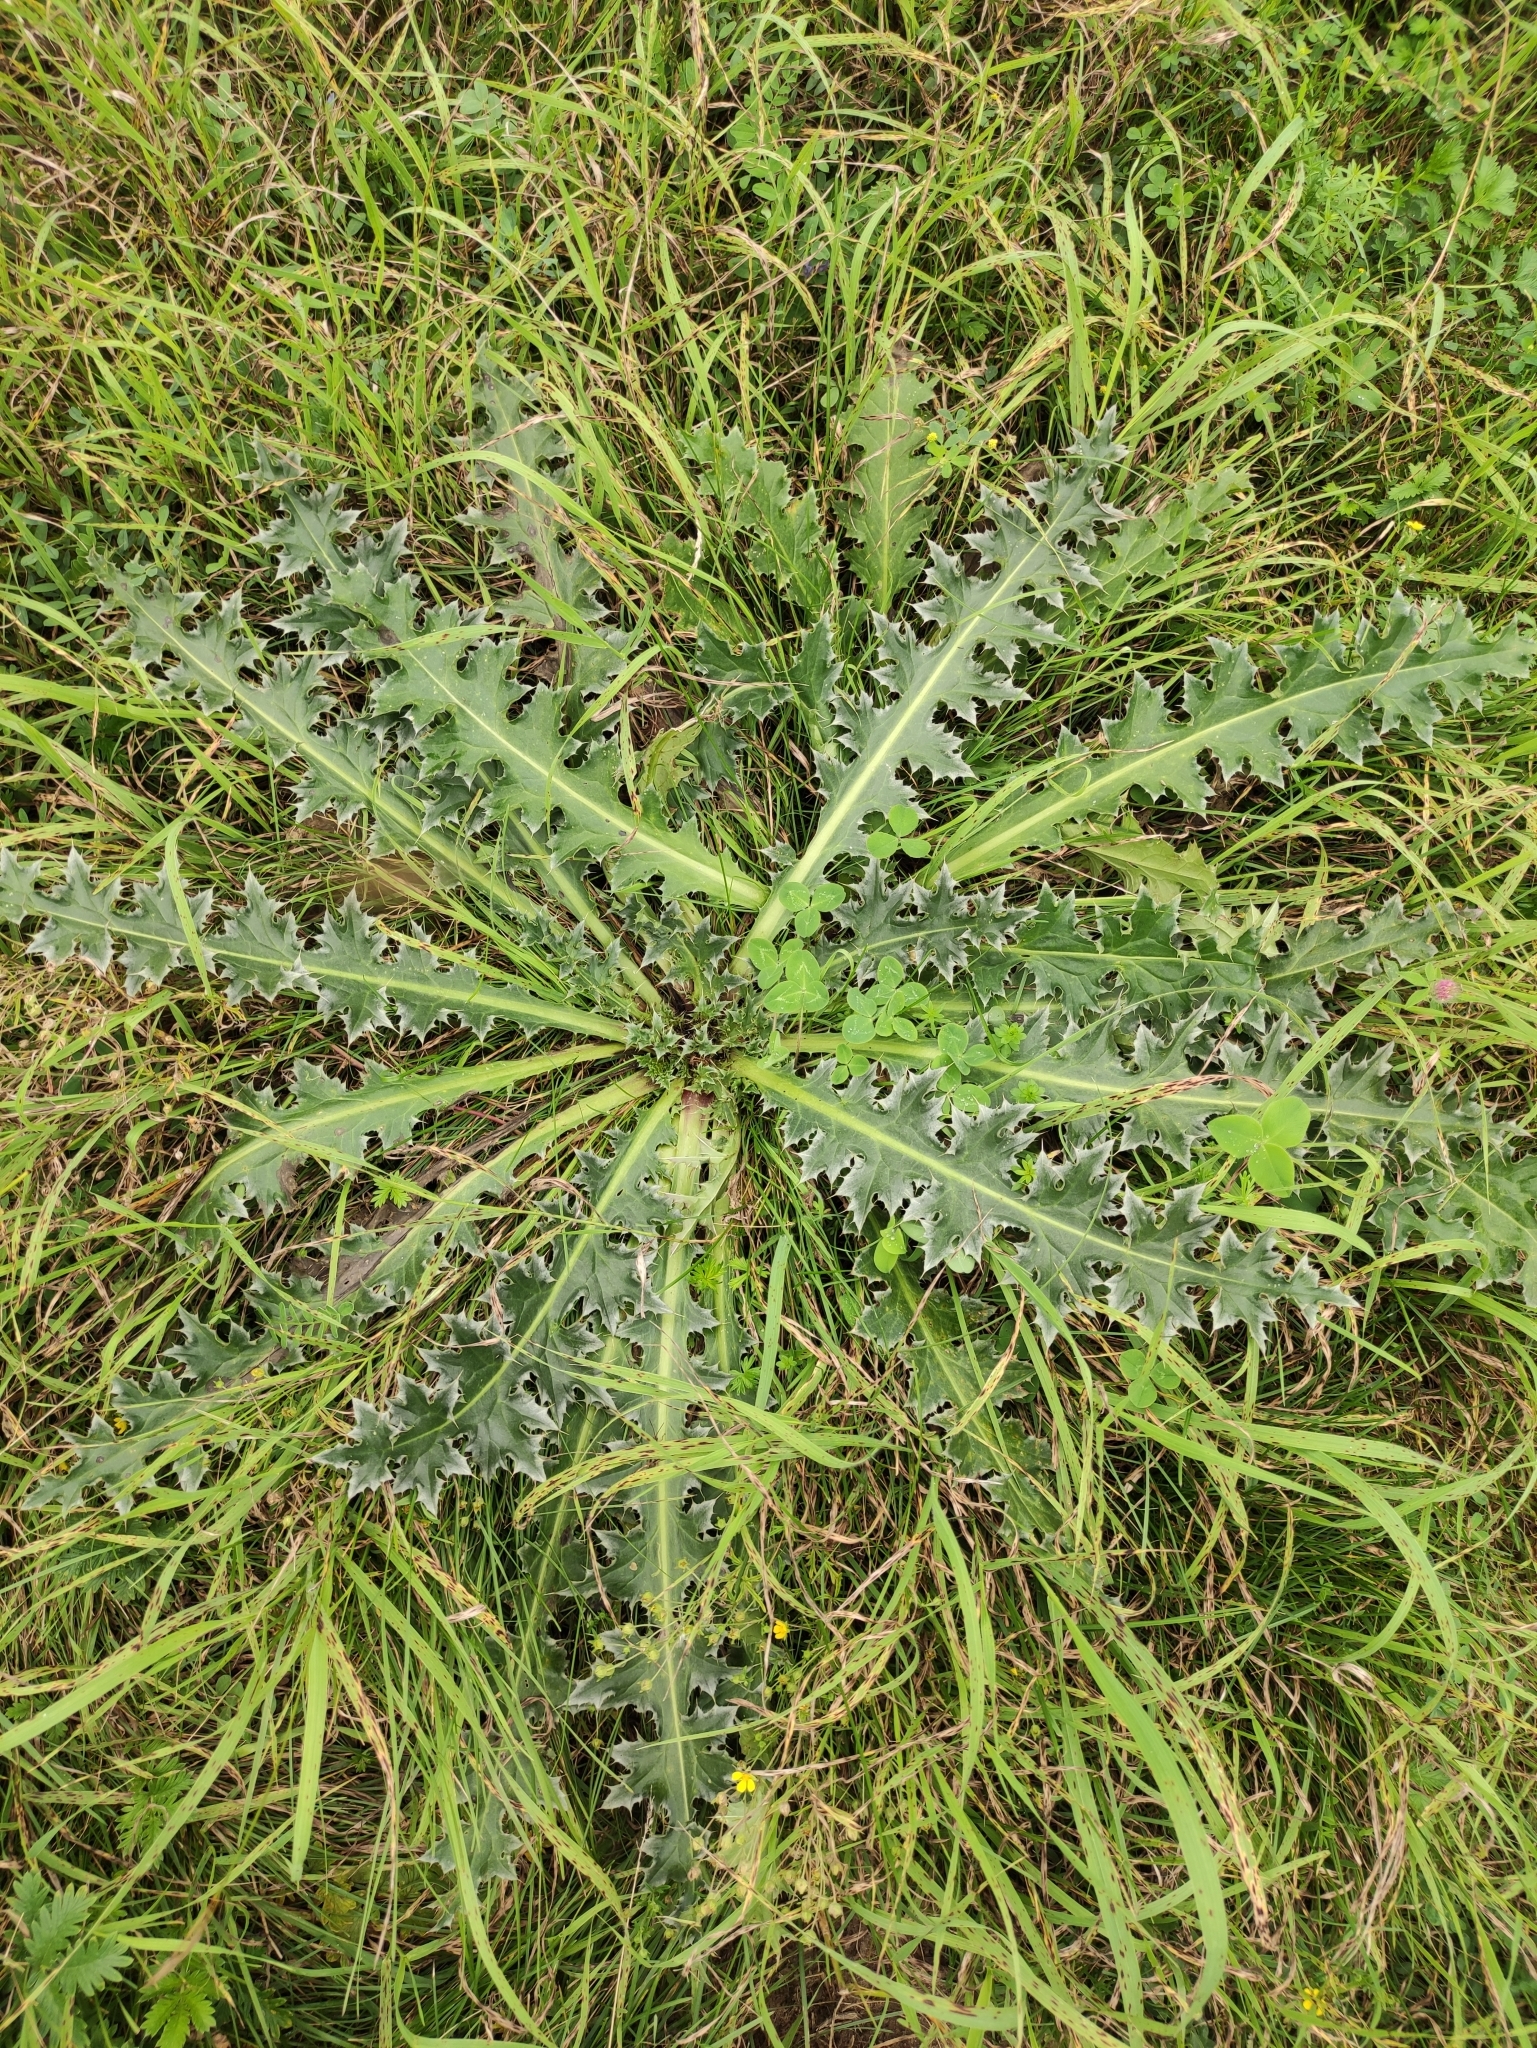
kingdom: Plantae
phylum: Tracheophyta
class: Magnoliopsida
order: Asterales
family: Asteraceae
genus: Cirsium
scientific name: Cirsium esculentum
